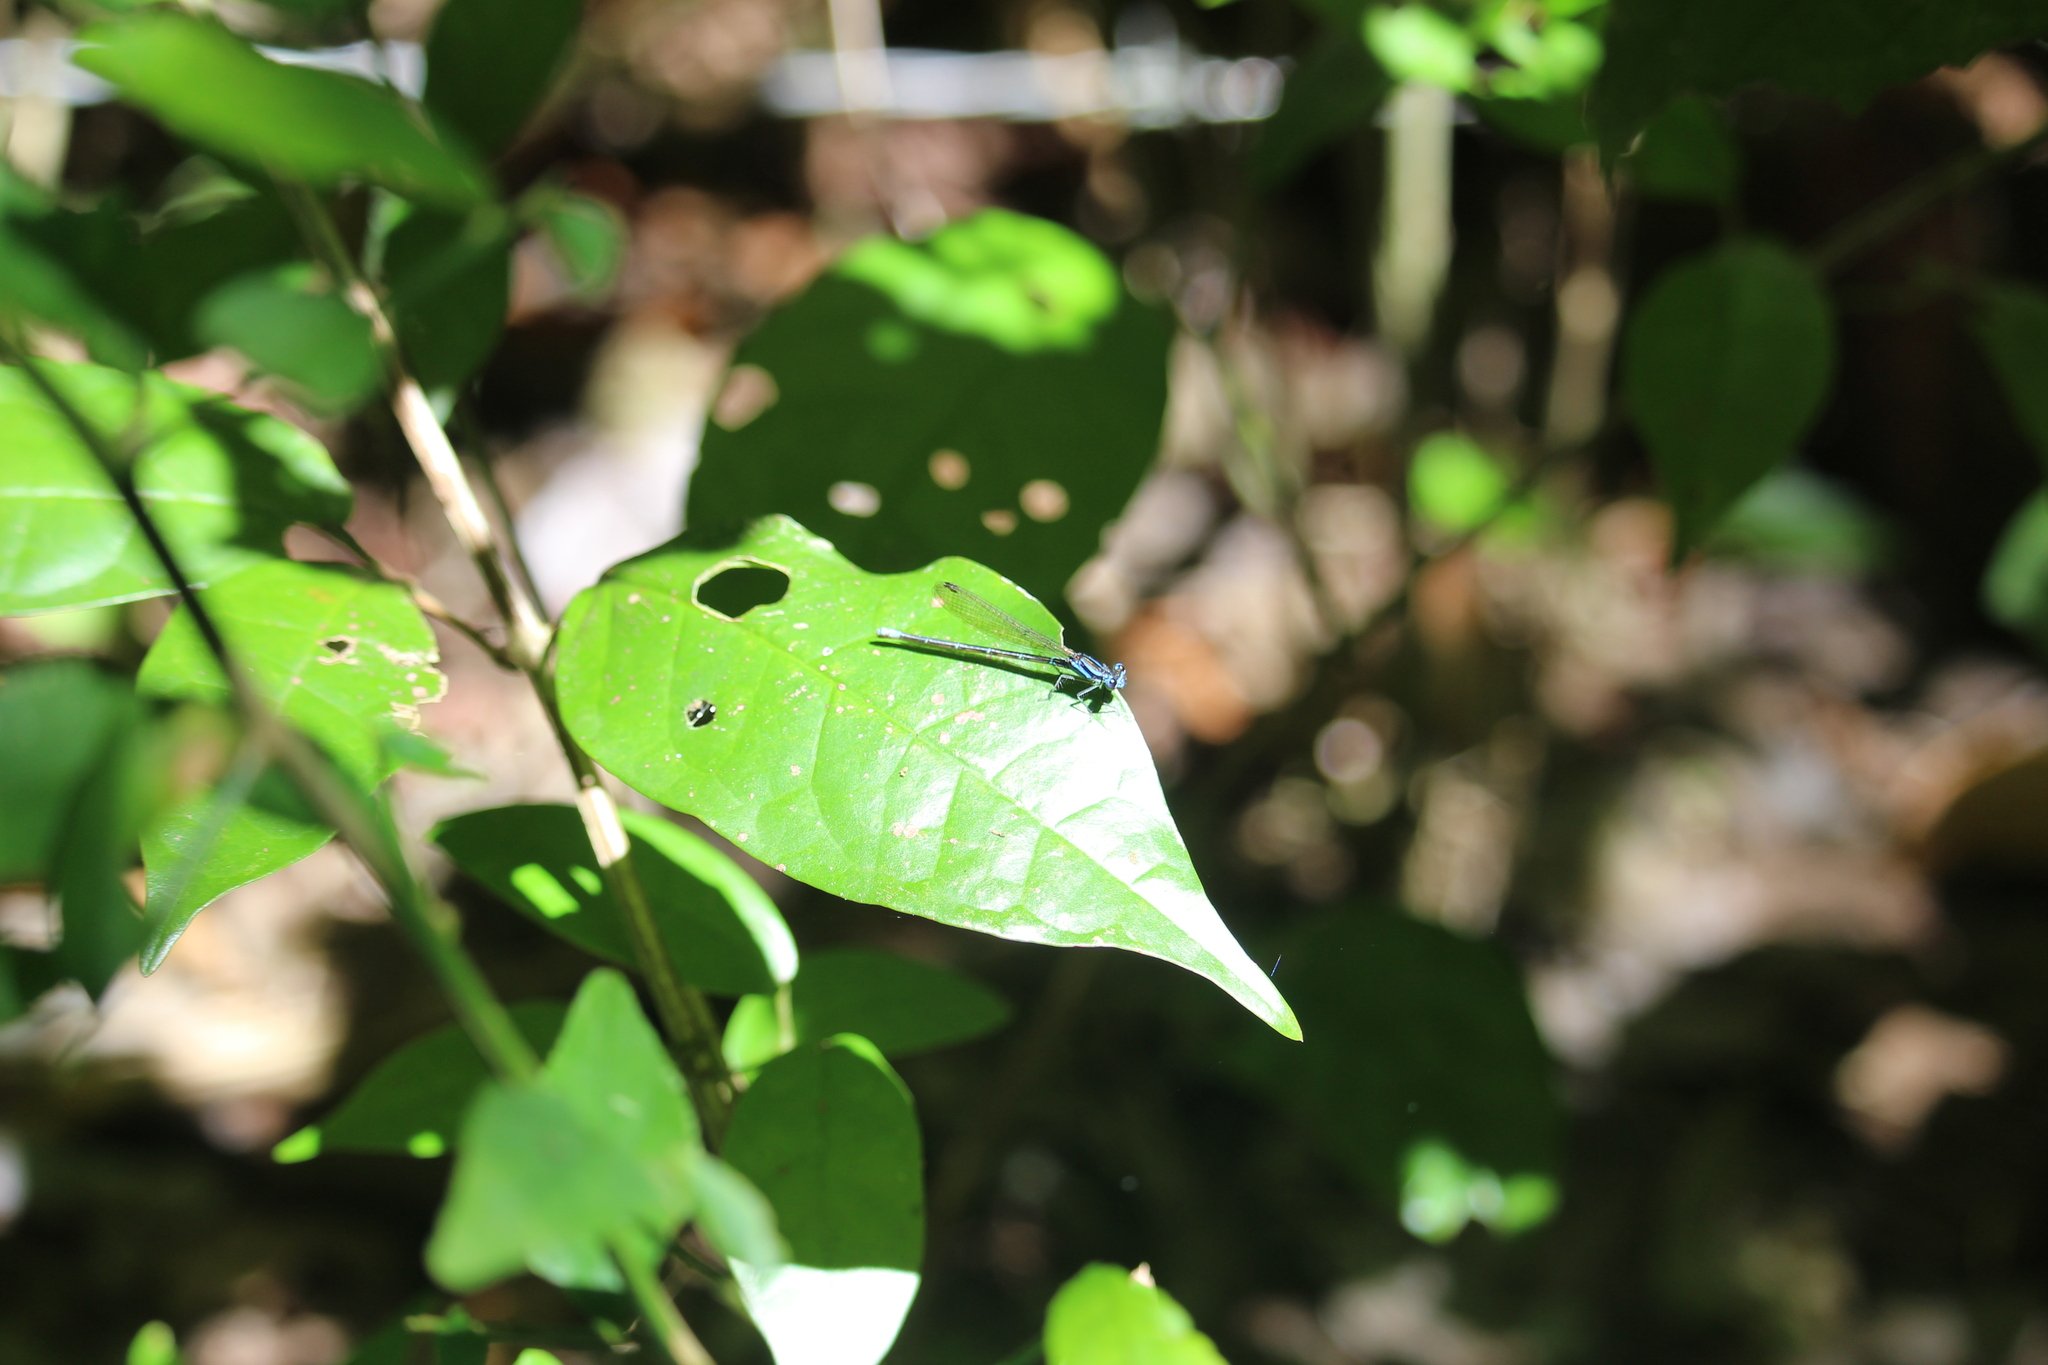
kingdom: Animalia
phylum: Arthropoda
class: Insecta
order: Odonata
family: Coenagrionidae
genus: Argia
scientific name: Argia gaumeri
